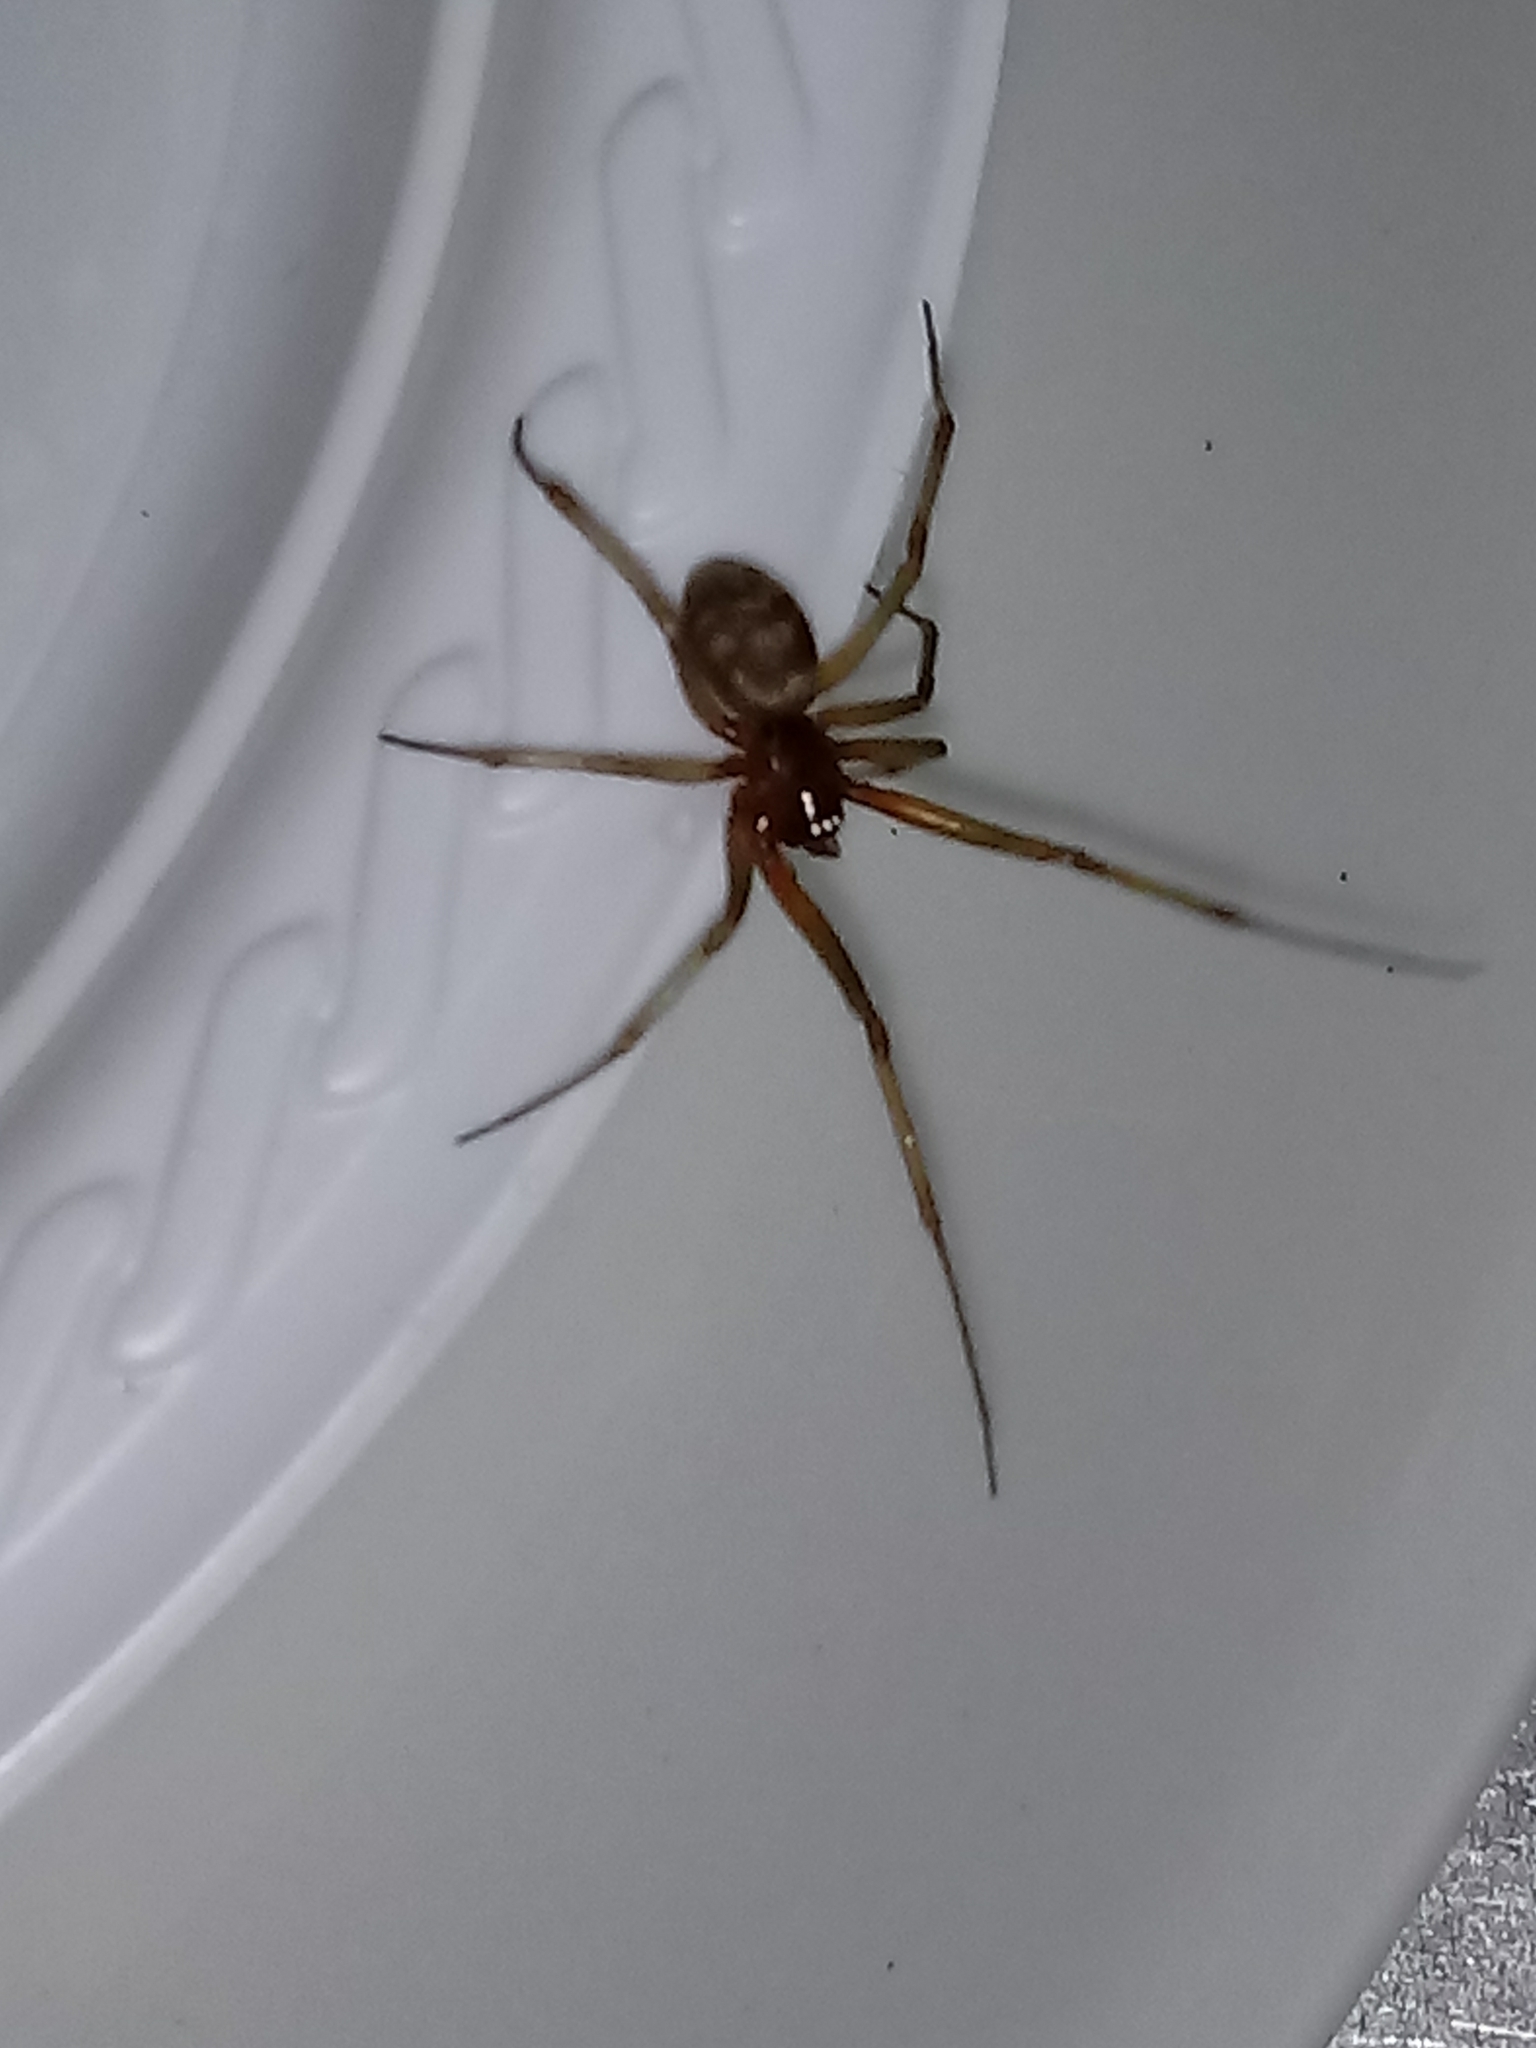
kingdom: Animalia
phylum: Arthropoda
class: Arachnida
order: Araneae
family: Theridiidae
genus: Steatoda
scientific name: Steatoda grossa
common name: False black widow
